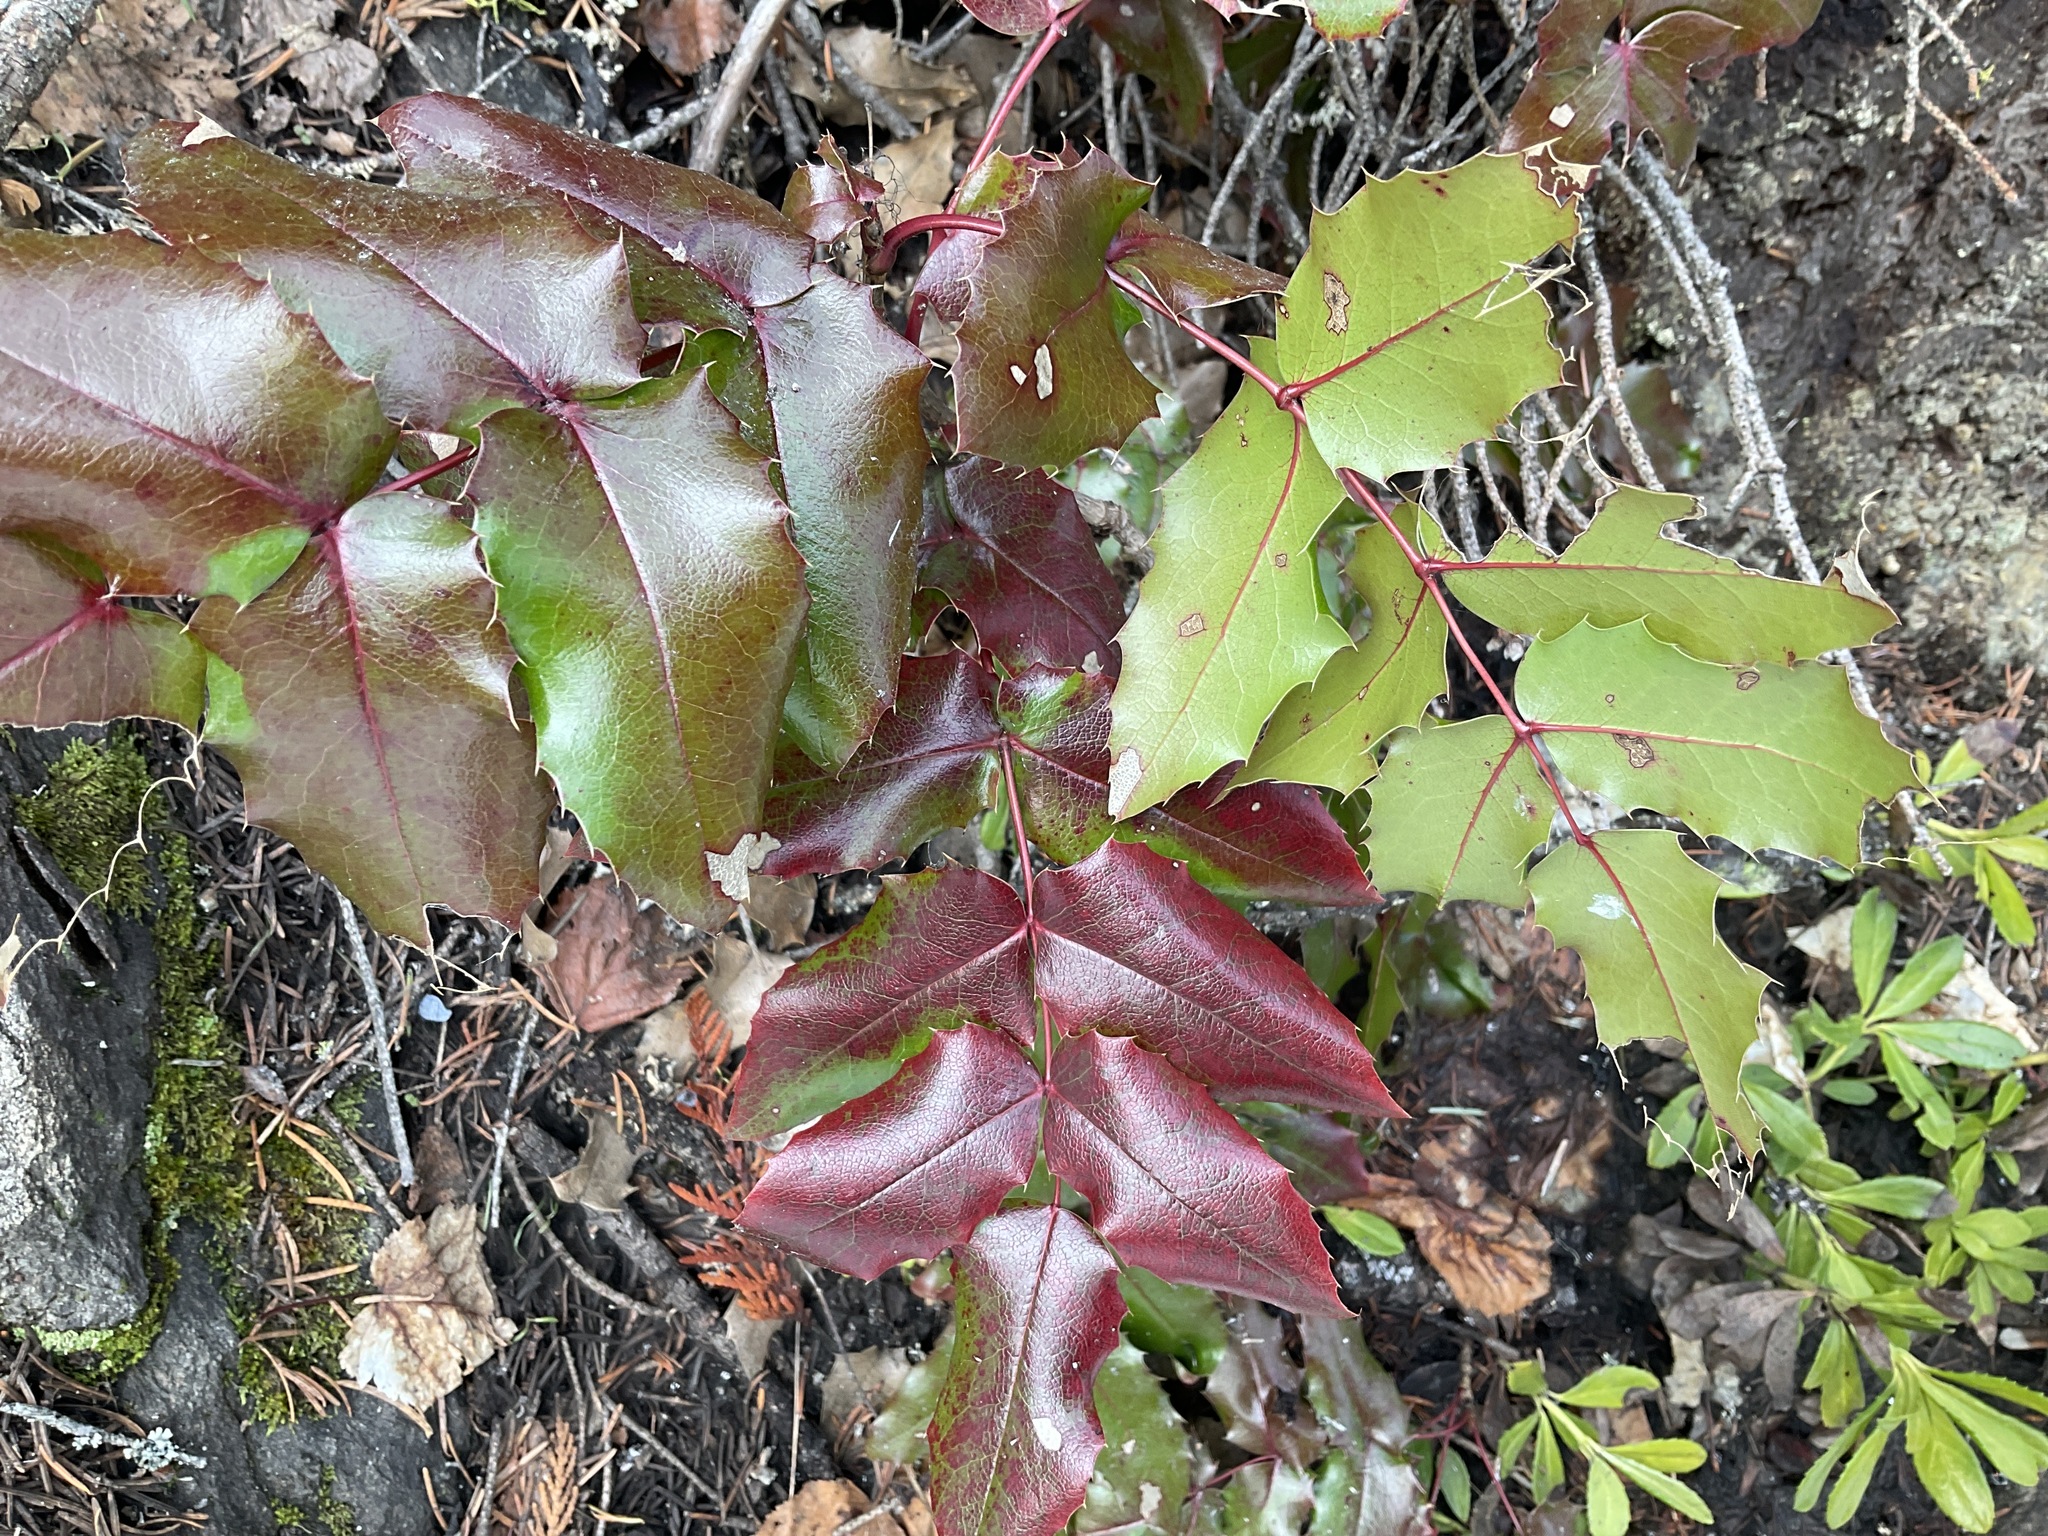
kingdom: Plantae
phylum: Tracheophyta
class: Magnoliopsida
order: Ranunculales
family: Berberidaceae
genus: Mahonia
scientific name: Mahonia aquifolium
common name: Oregon-grape
